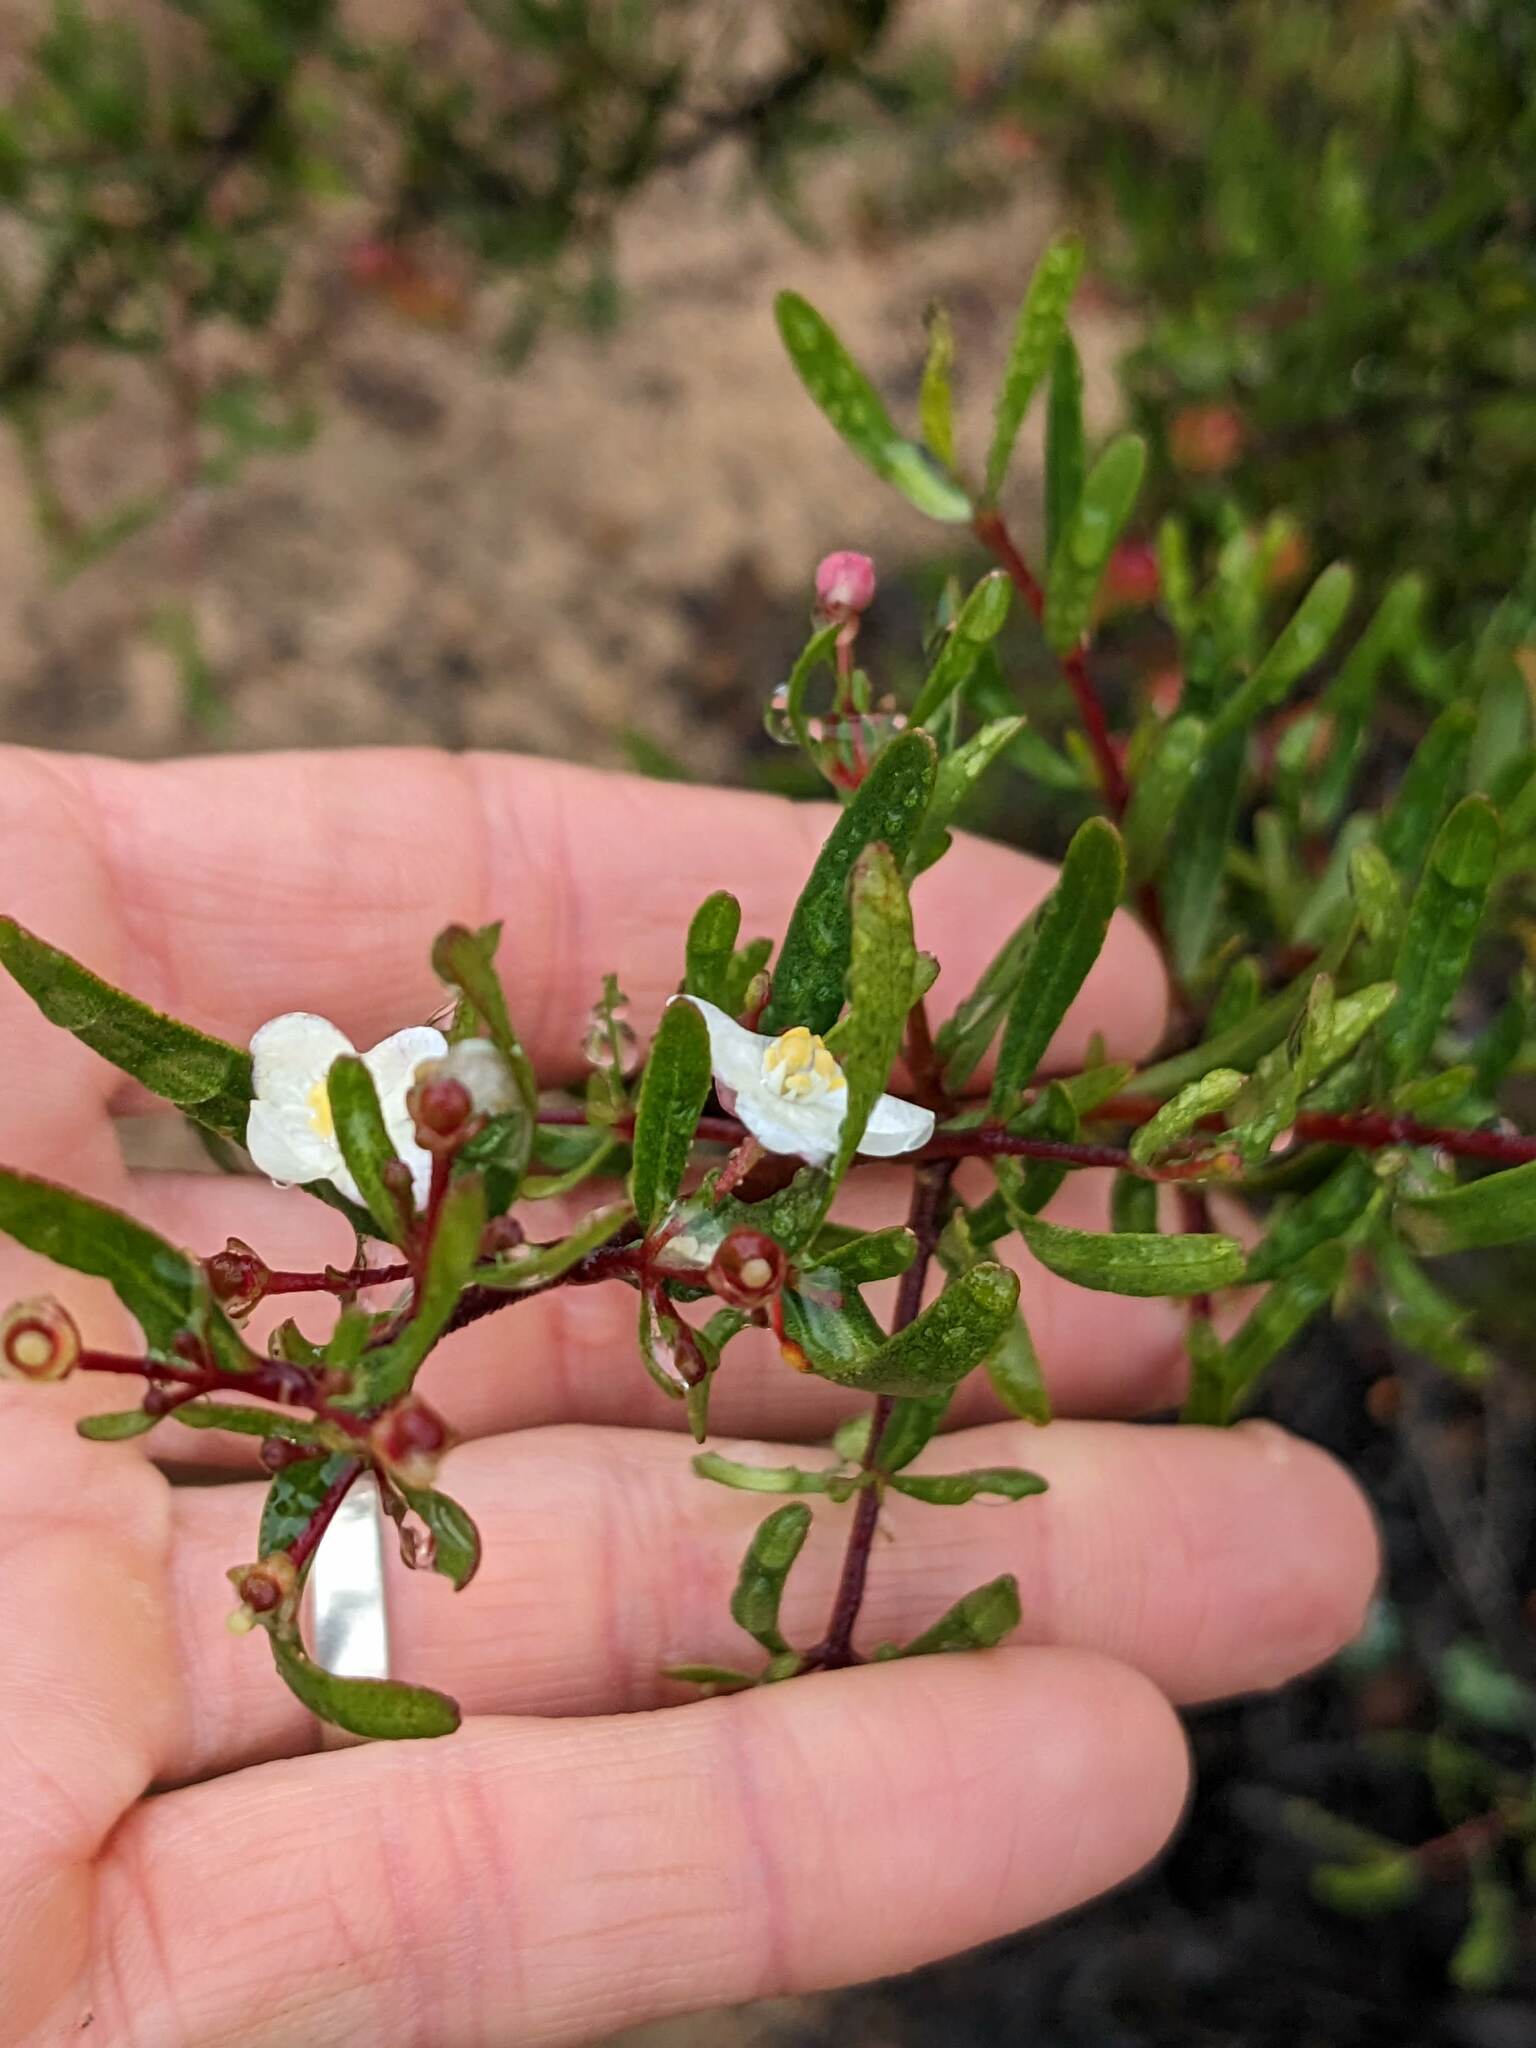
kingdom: Plantae
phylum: Tracheophyta
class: Magnoliopsida
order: Sapindales
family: Rutaceae
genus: Cneoridium
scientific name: Cneoridium dumosum
